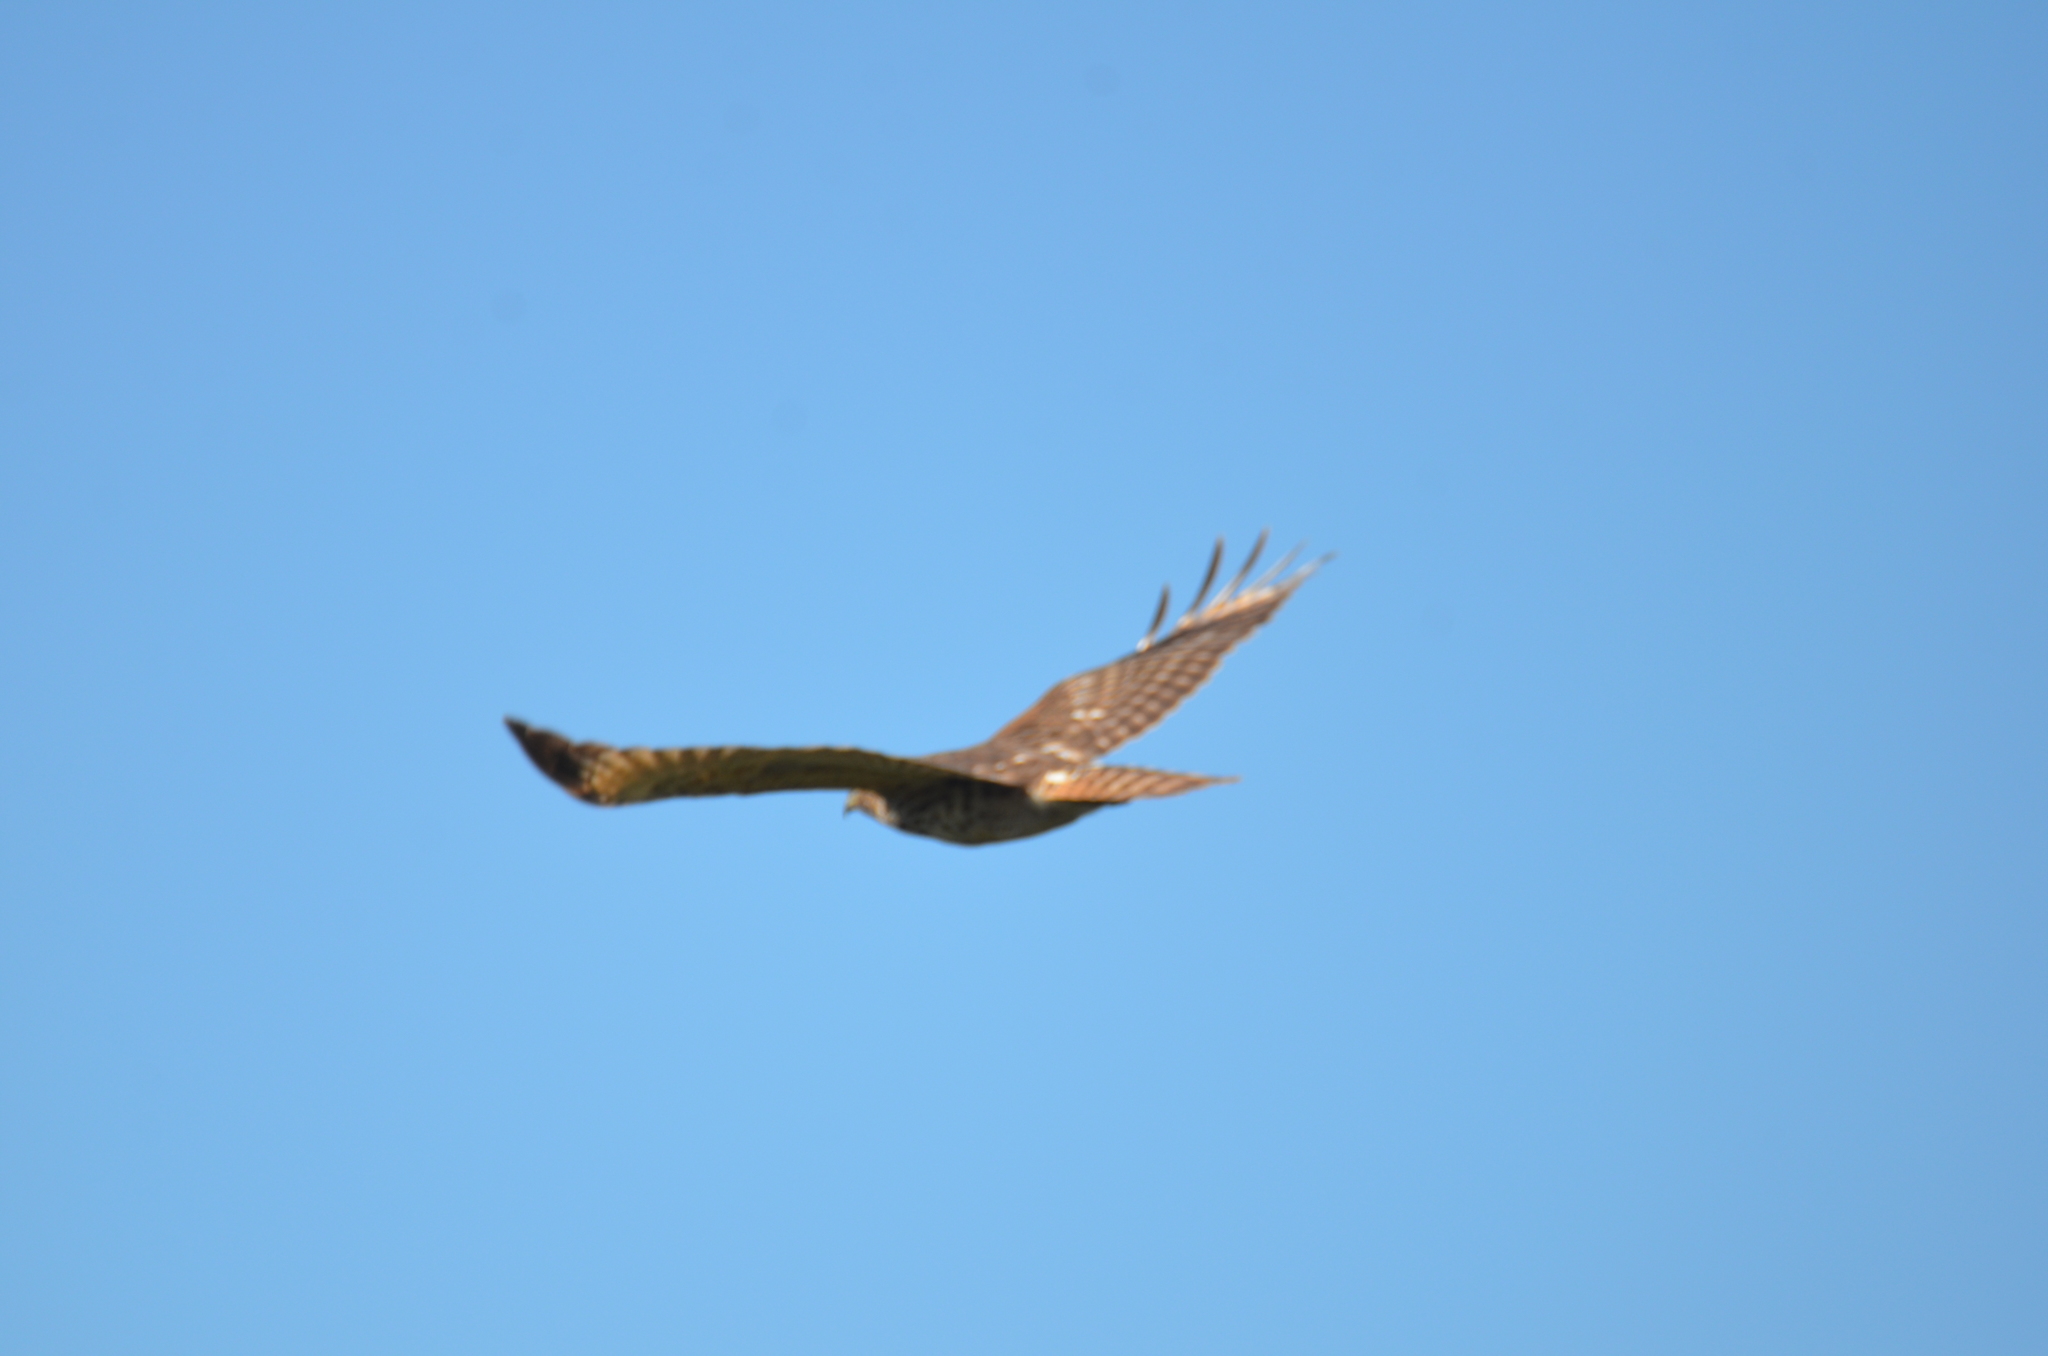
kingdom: Animalia
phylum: Chordata
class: Aves
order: Accipitriformes
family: Accipitridae
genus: Buteo
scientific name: Buteo lineatus
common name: Red-shouldered hawk
